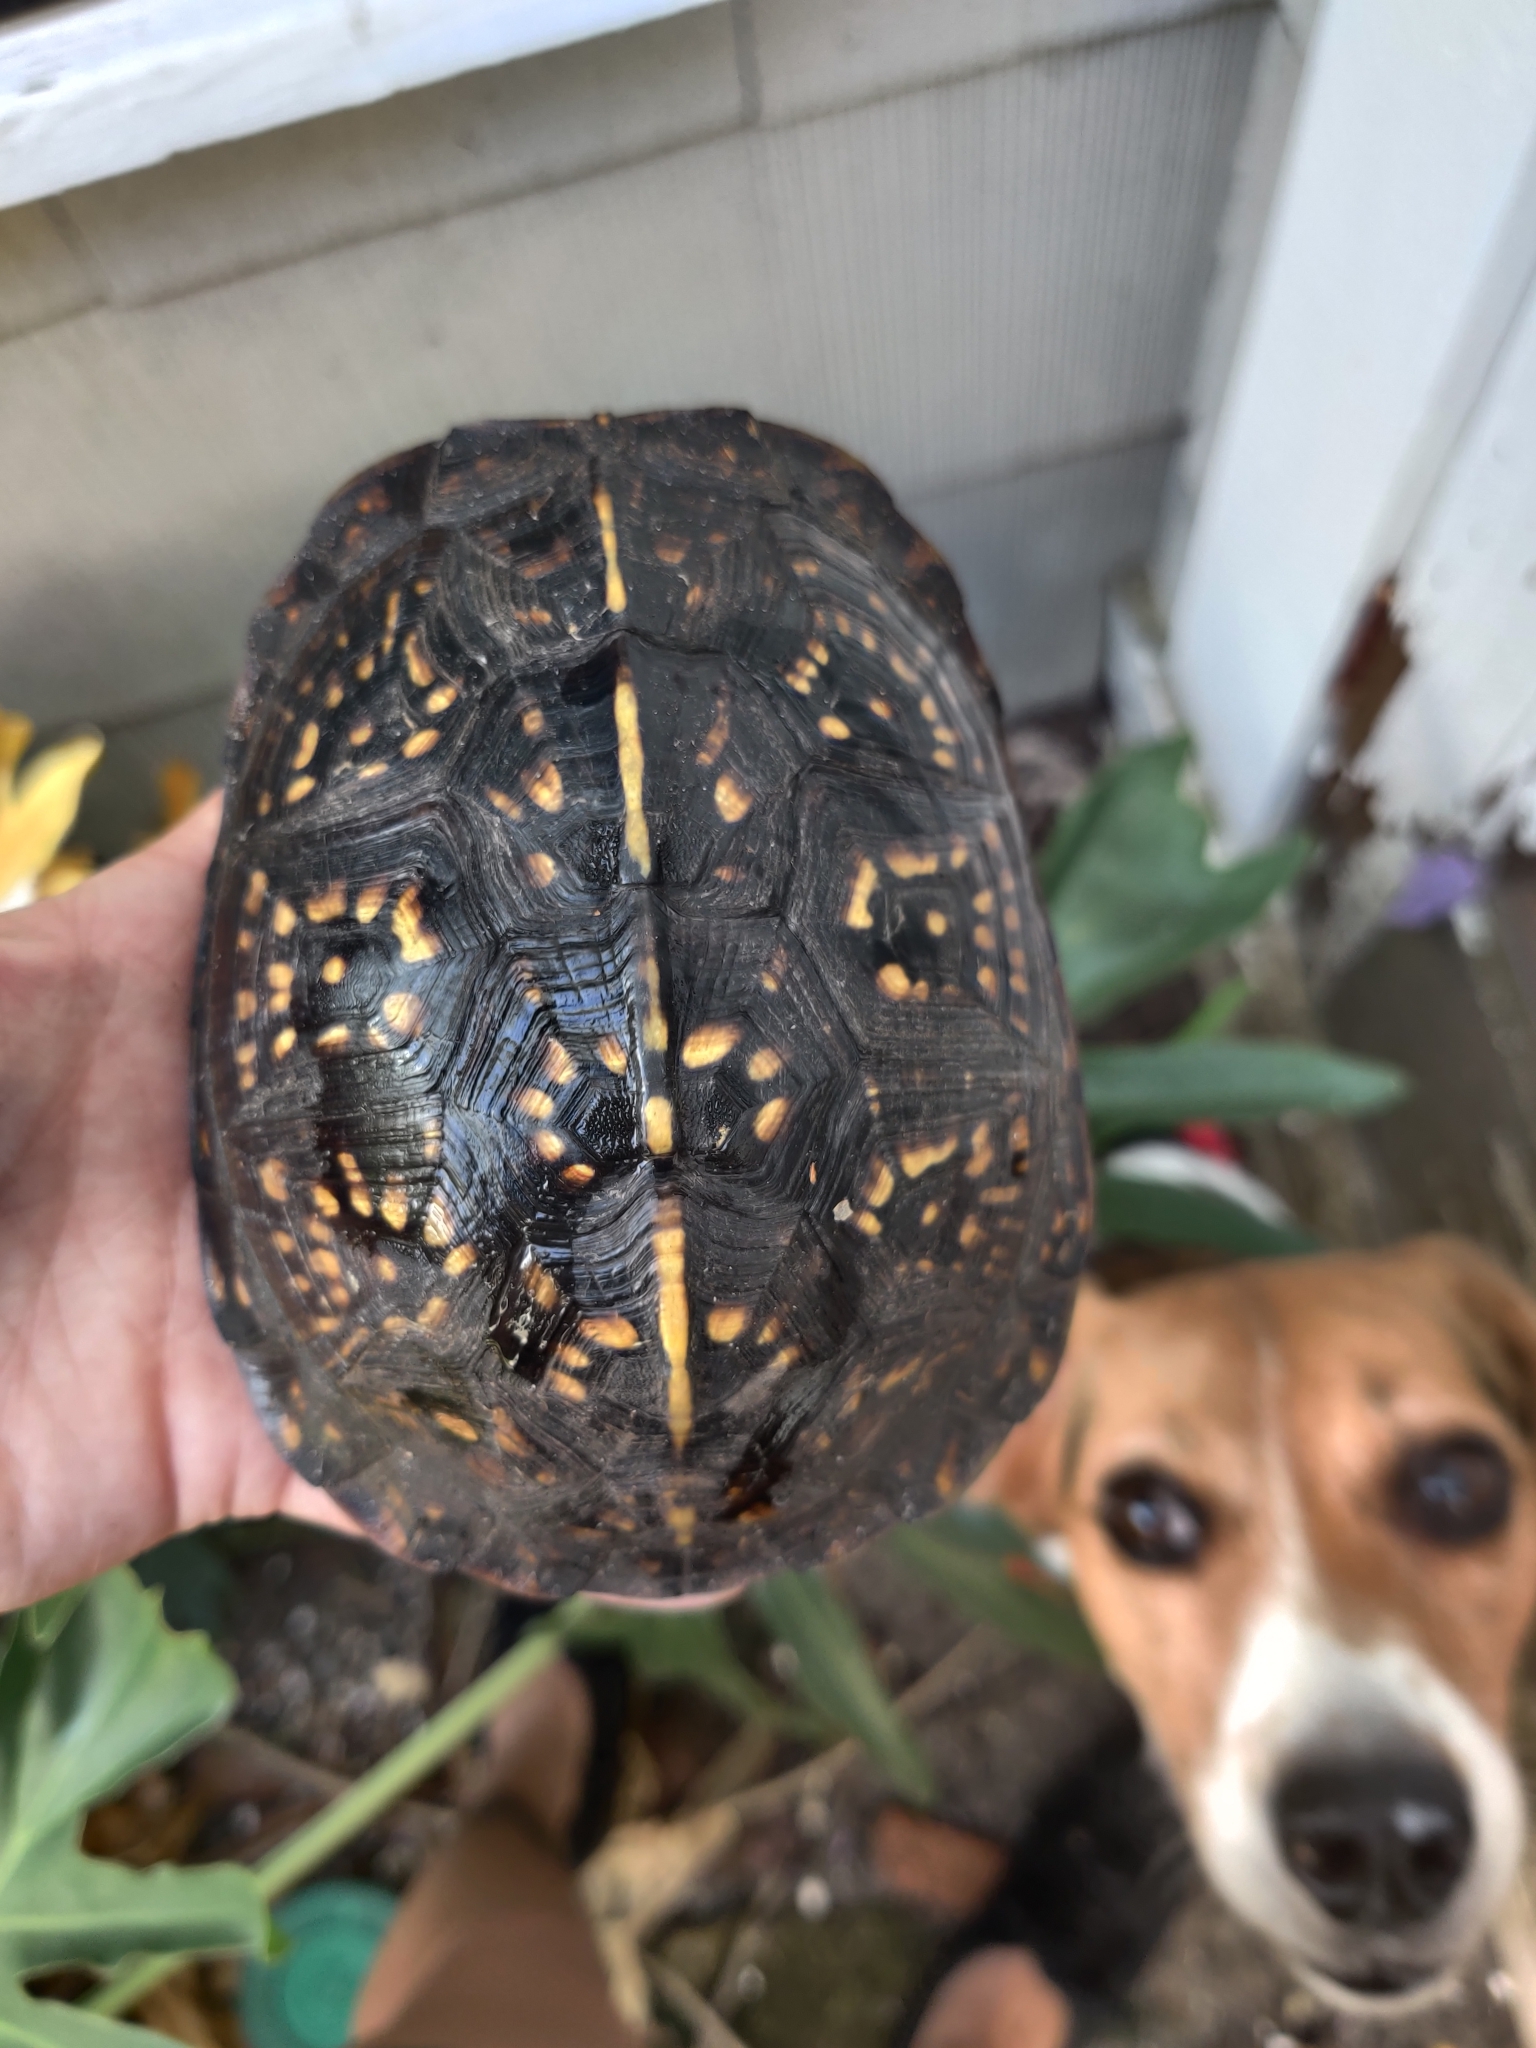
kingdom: Animalia
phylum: Chordata
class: Testudines
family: Emydidae
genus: Terrapene
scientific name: Terrapene carolina
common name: Common box turtle
